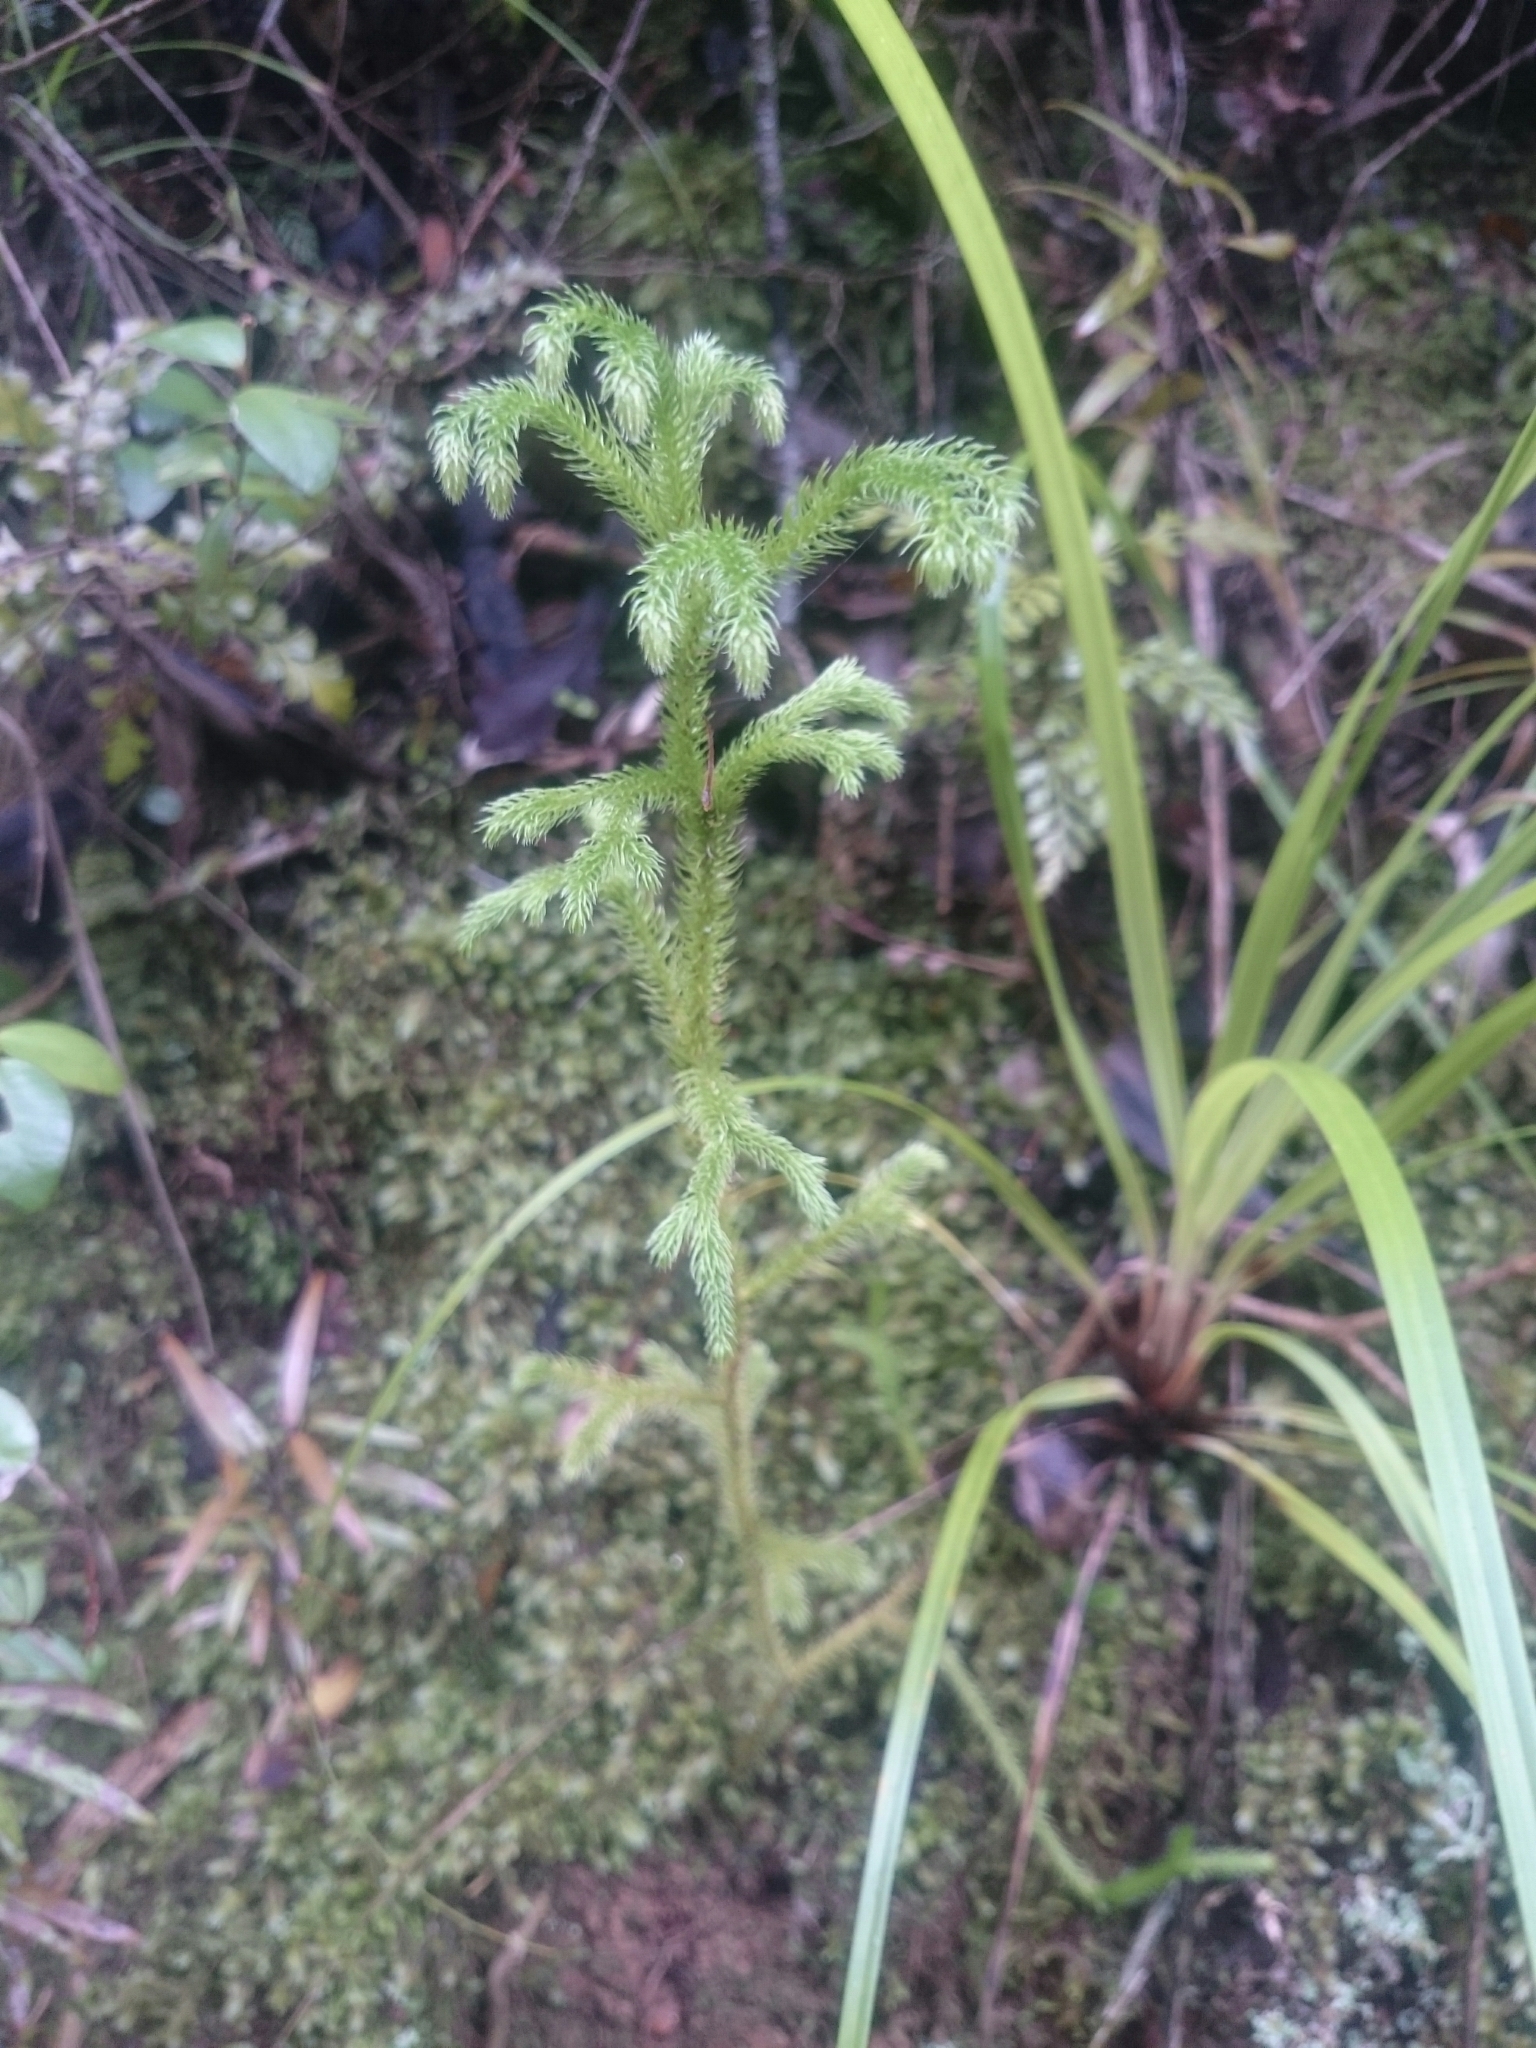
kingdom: Plantae
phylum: Tracheophyta
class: Lycopodiopsida
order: Lycopodiales
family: Lycopodiaceae
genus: Palhinhaea
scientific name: Palhinhaea cernua
